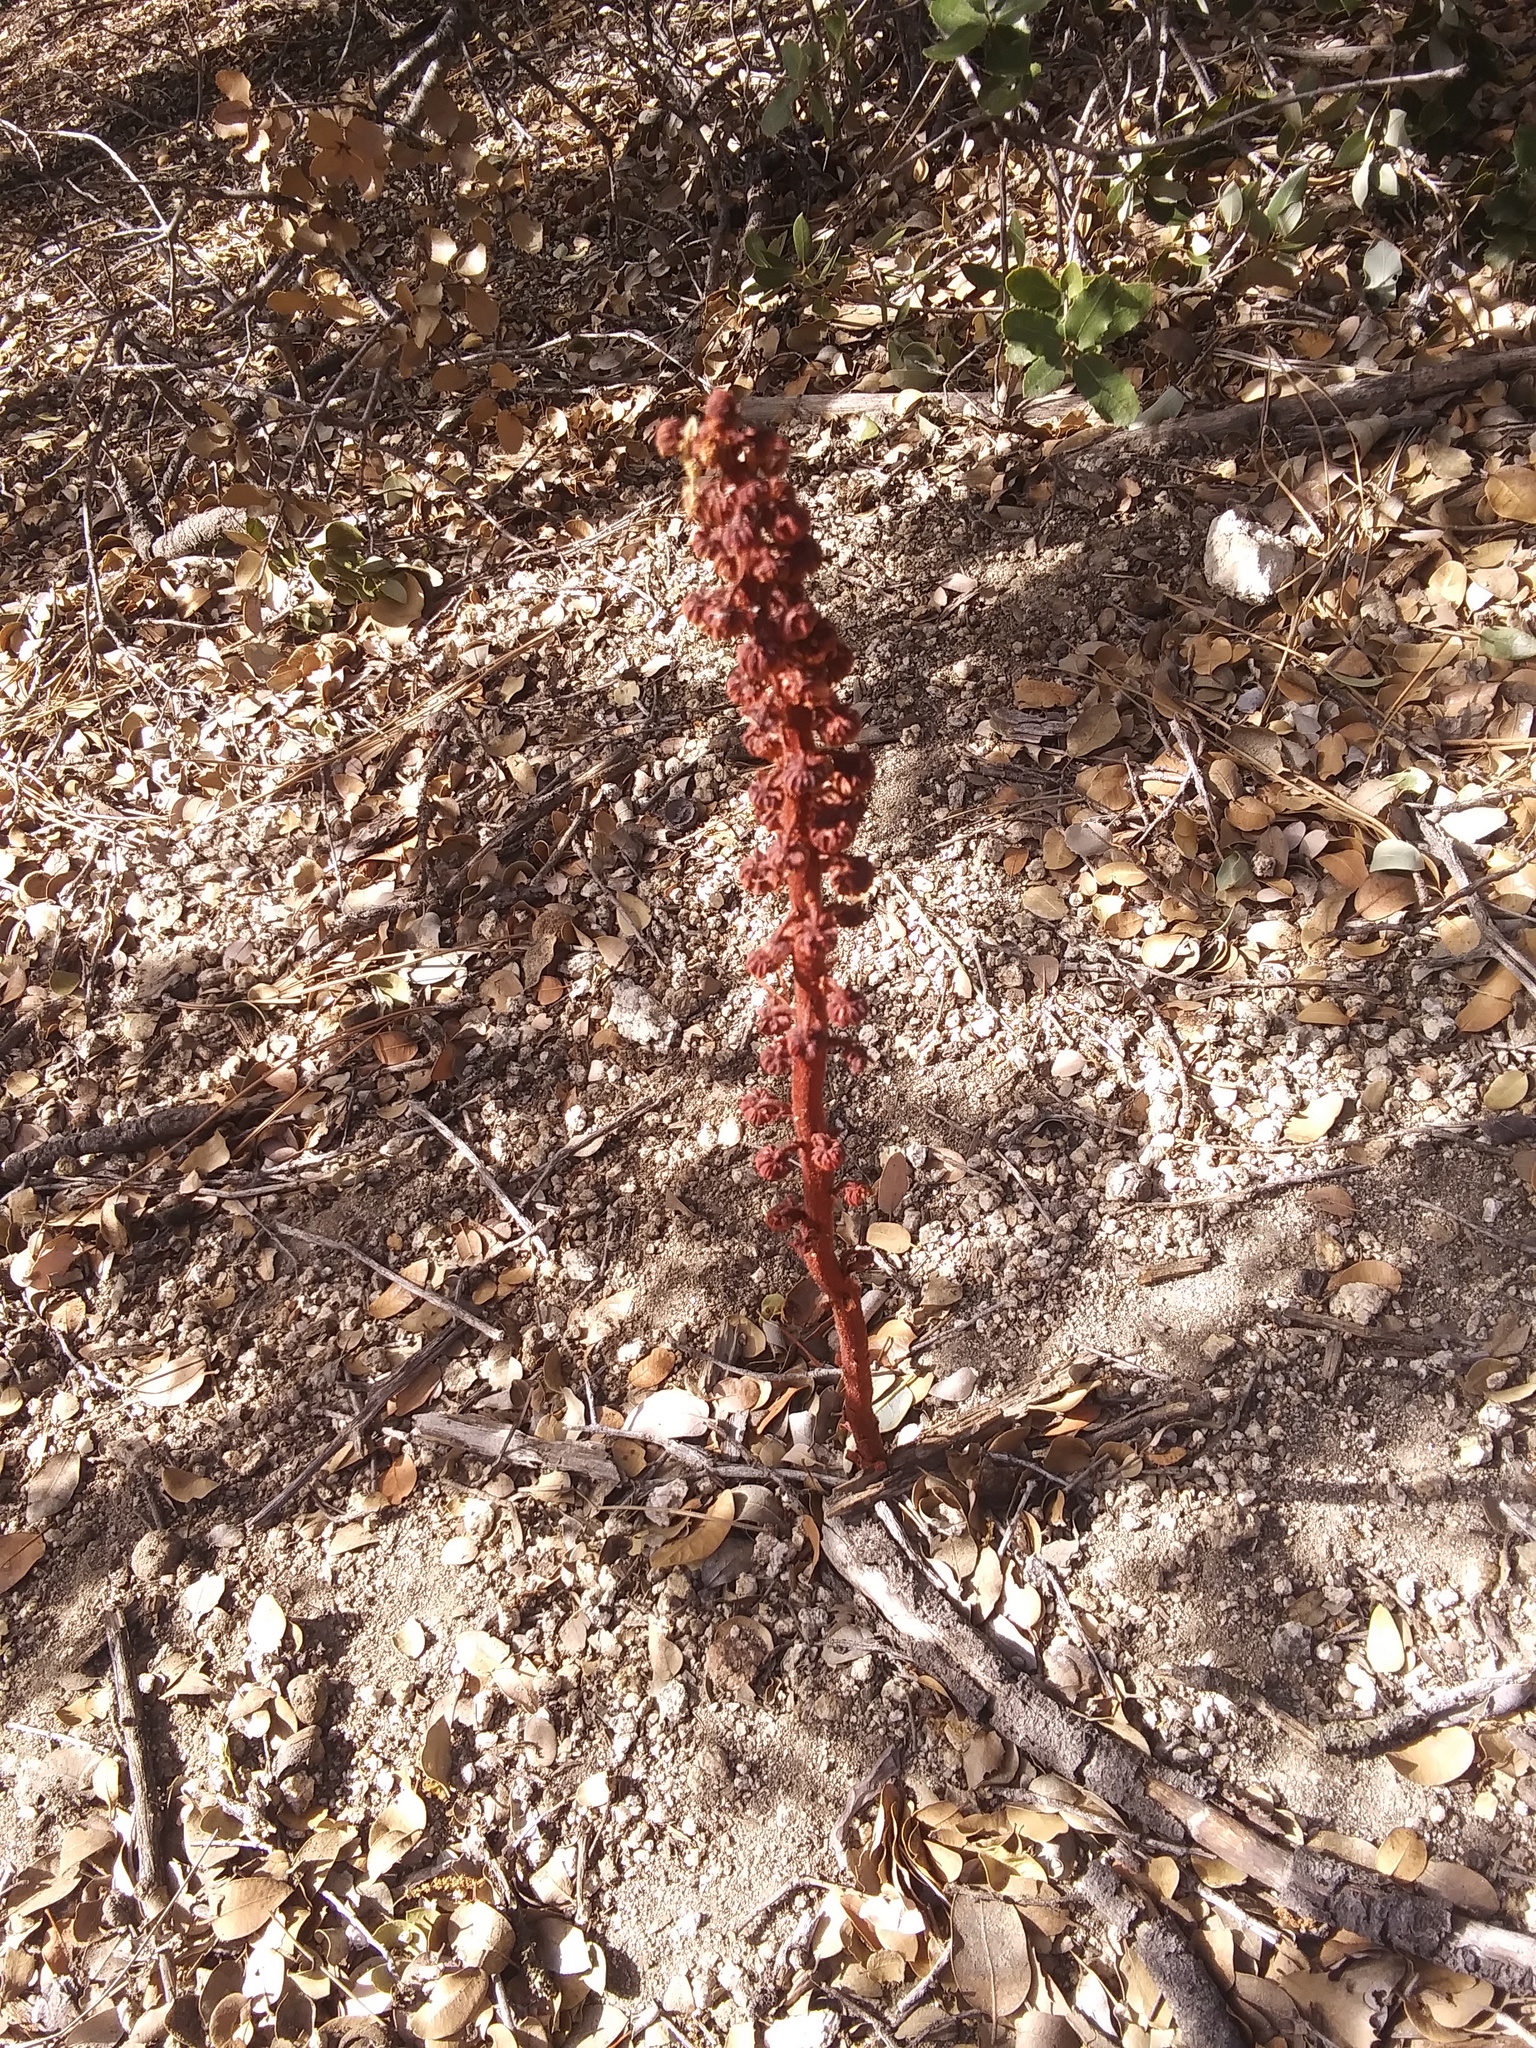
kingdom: Plantae
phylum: Tracheophyta
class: Magnoliopsida
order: Ericales
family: Ericaceae
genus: Pterospora
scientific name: Pterospora andromedea
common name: Giant bird's-nest
